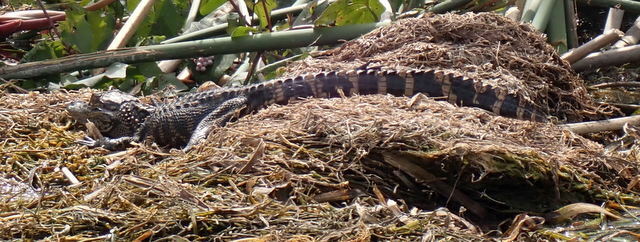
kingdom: Animalia
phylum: Chordata
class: Crocodylia
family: Alligatoridae
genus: Alligator
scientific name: Alligator mississippiensis
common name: American alligator
